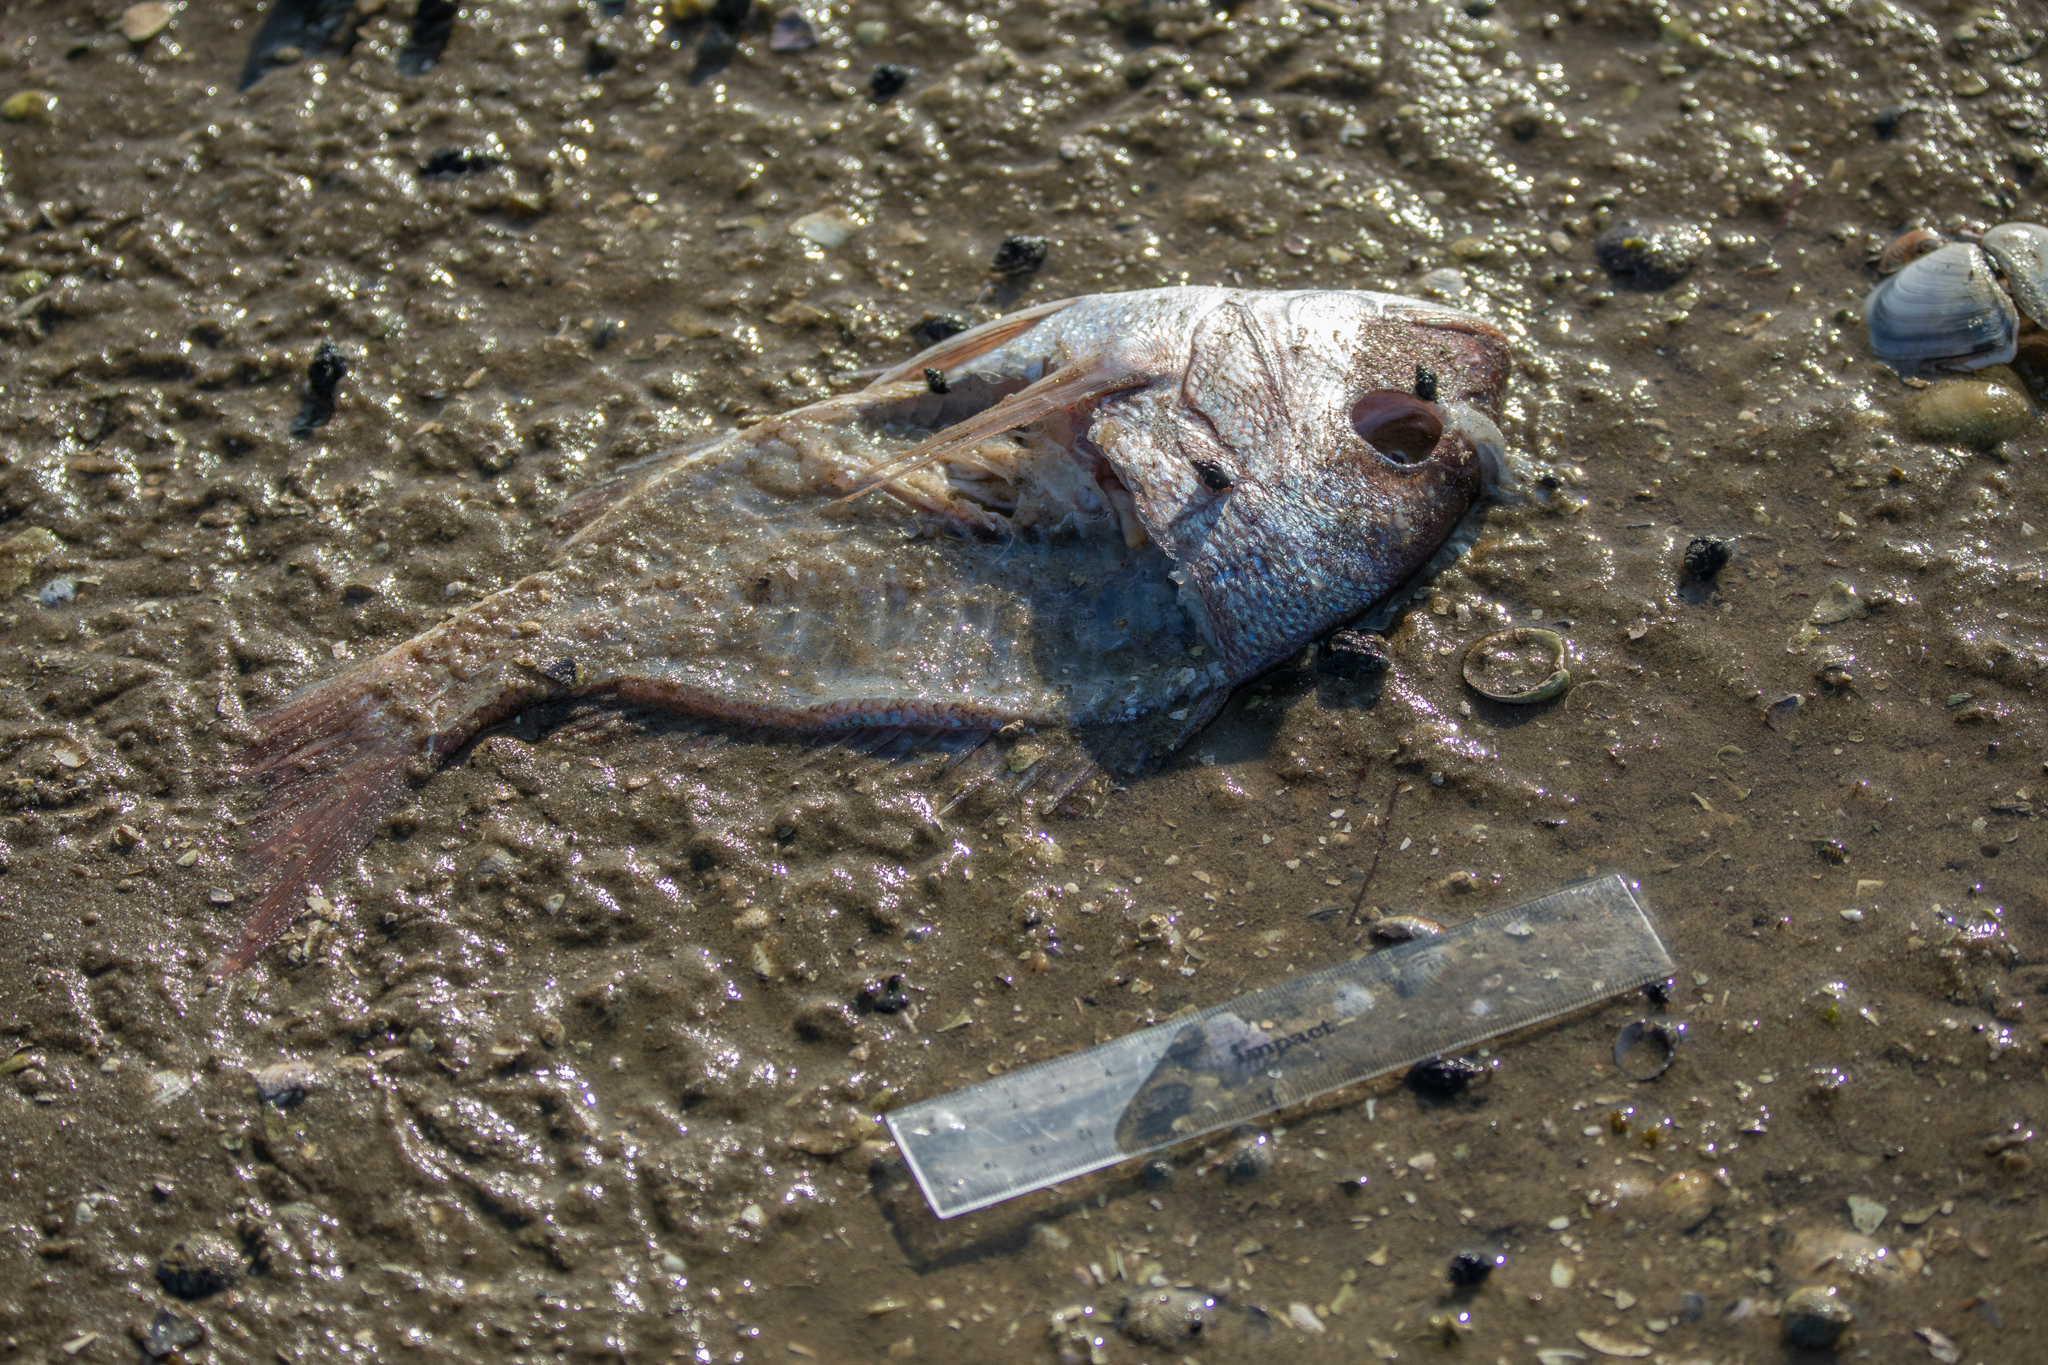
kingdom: Animalia
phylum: Chordata
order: Perciformes
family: Sparidae
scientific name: Sparidae
